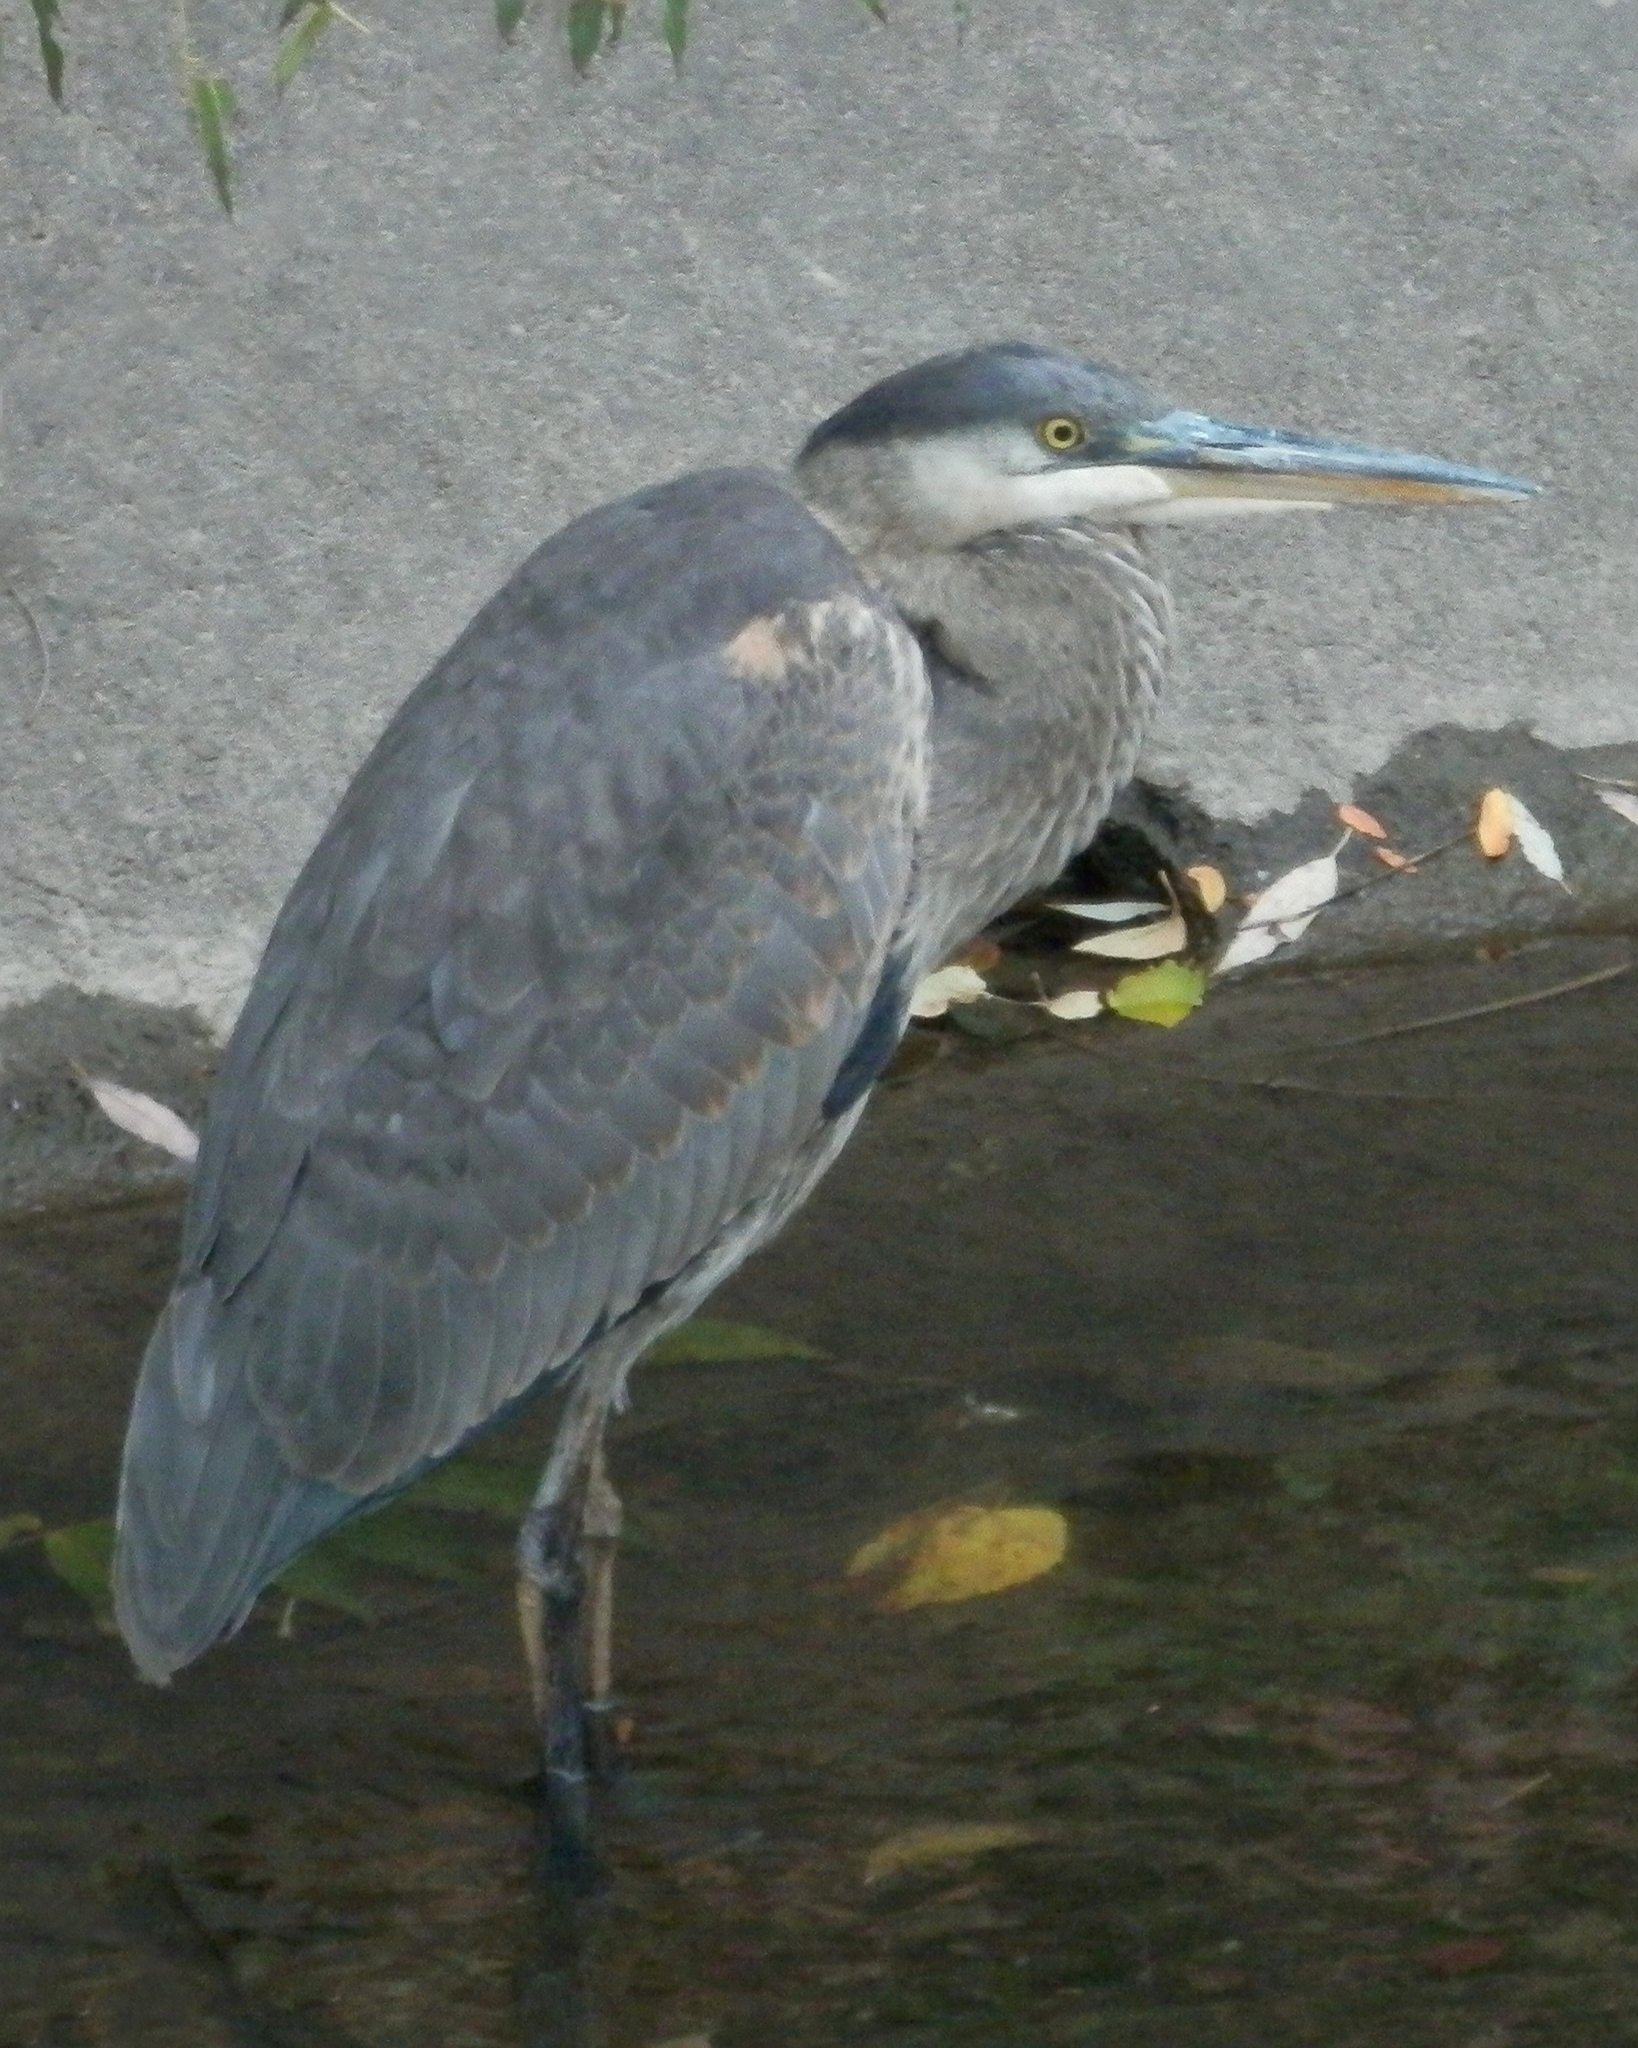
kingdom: Animalia
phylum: Chordata
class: Aves
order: Pelecaniformes
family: Ardeidae
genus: Ardea
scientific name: Ardea herodias
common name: Great blue heron
